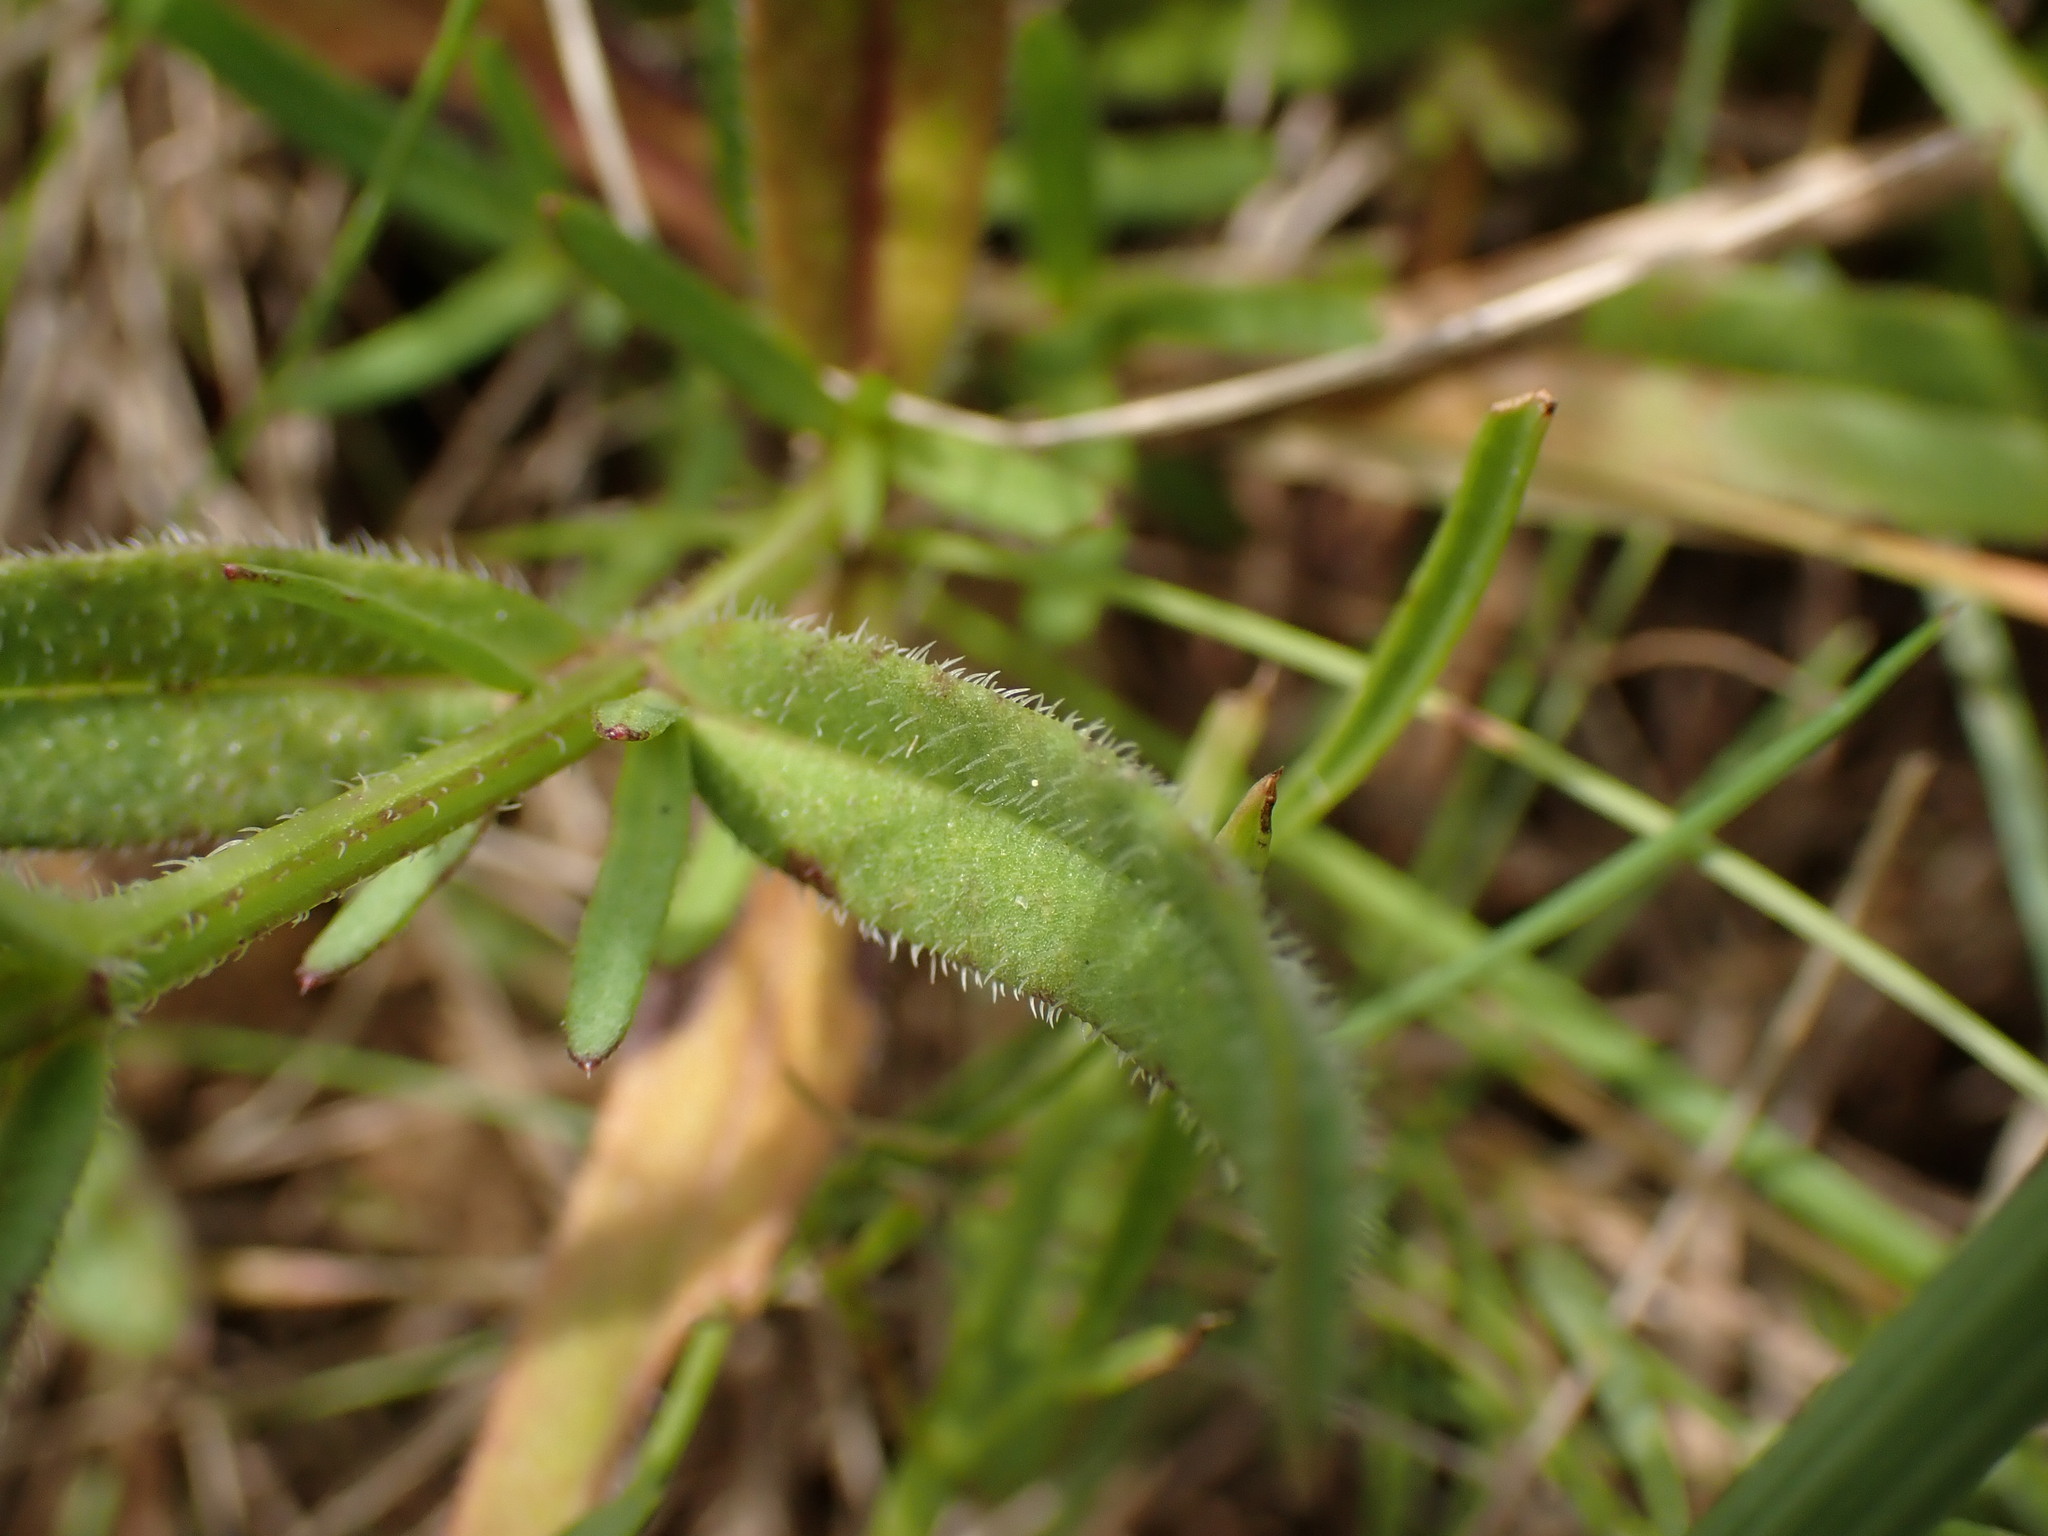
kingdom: Plantae
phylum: Tracheophyta
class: Magnoliopsida
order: Lamiales
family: Lamiaceae
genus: Prunella
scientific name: Prunella hyssopifolia
